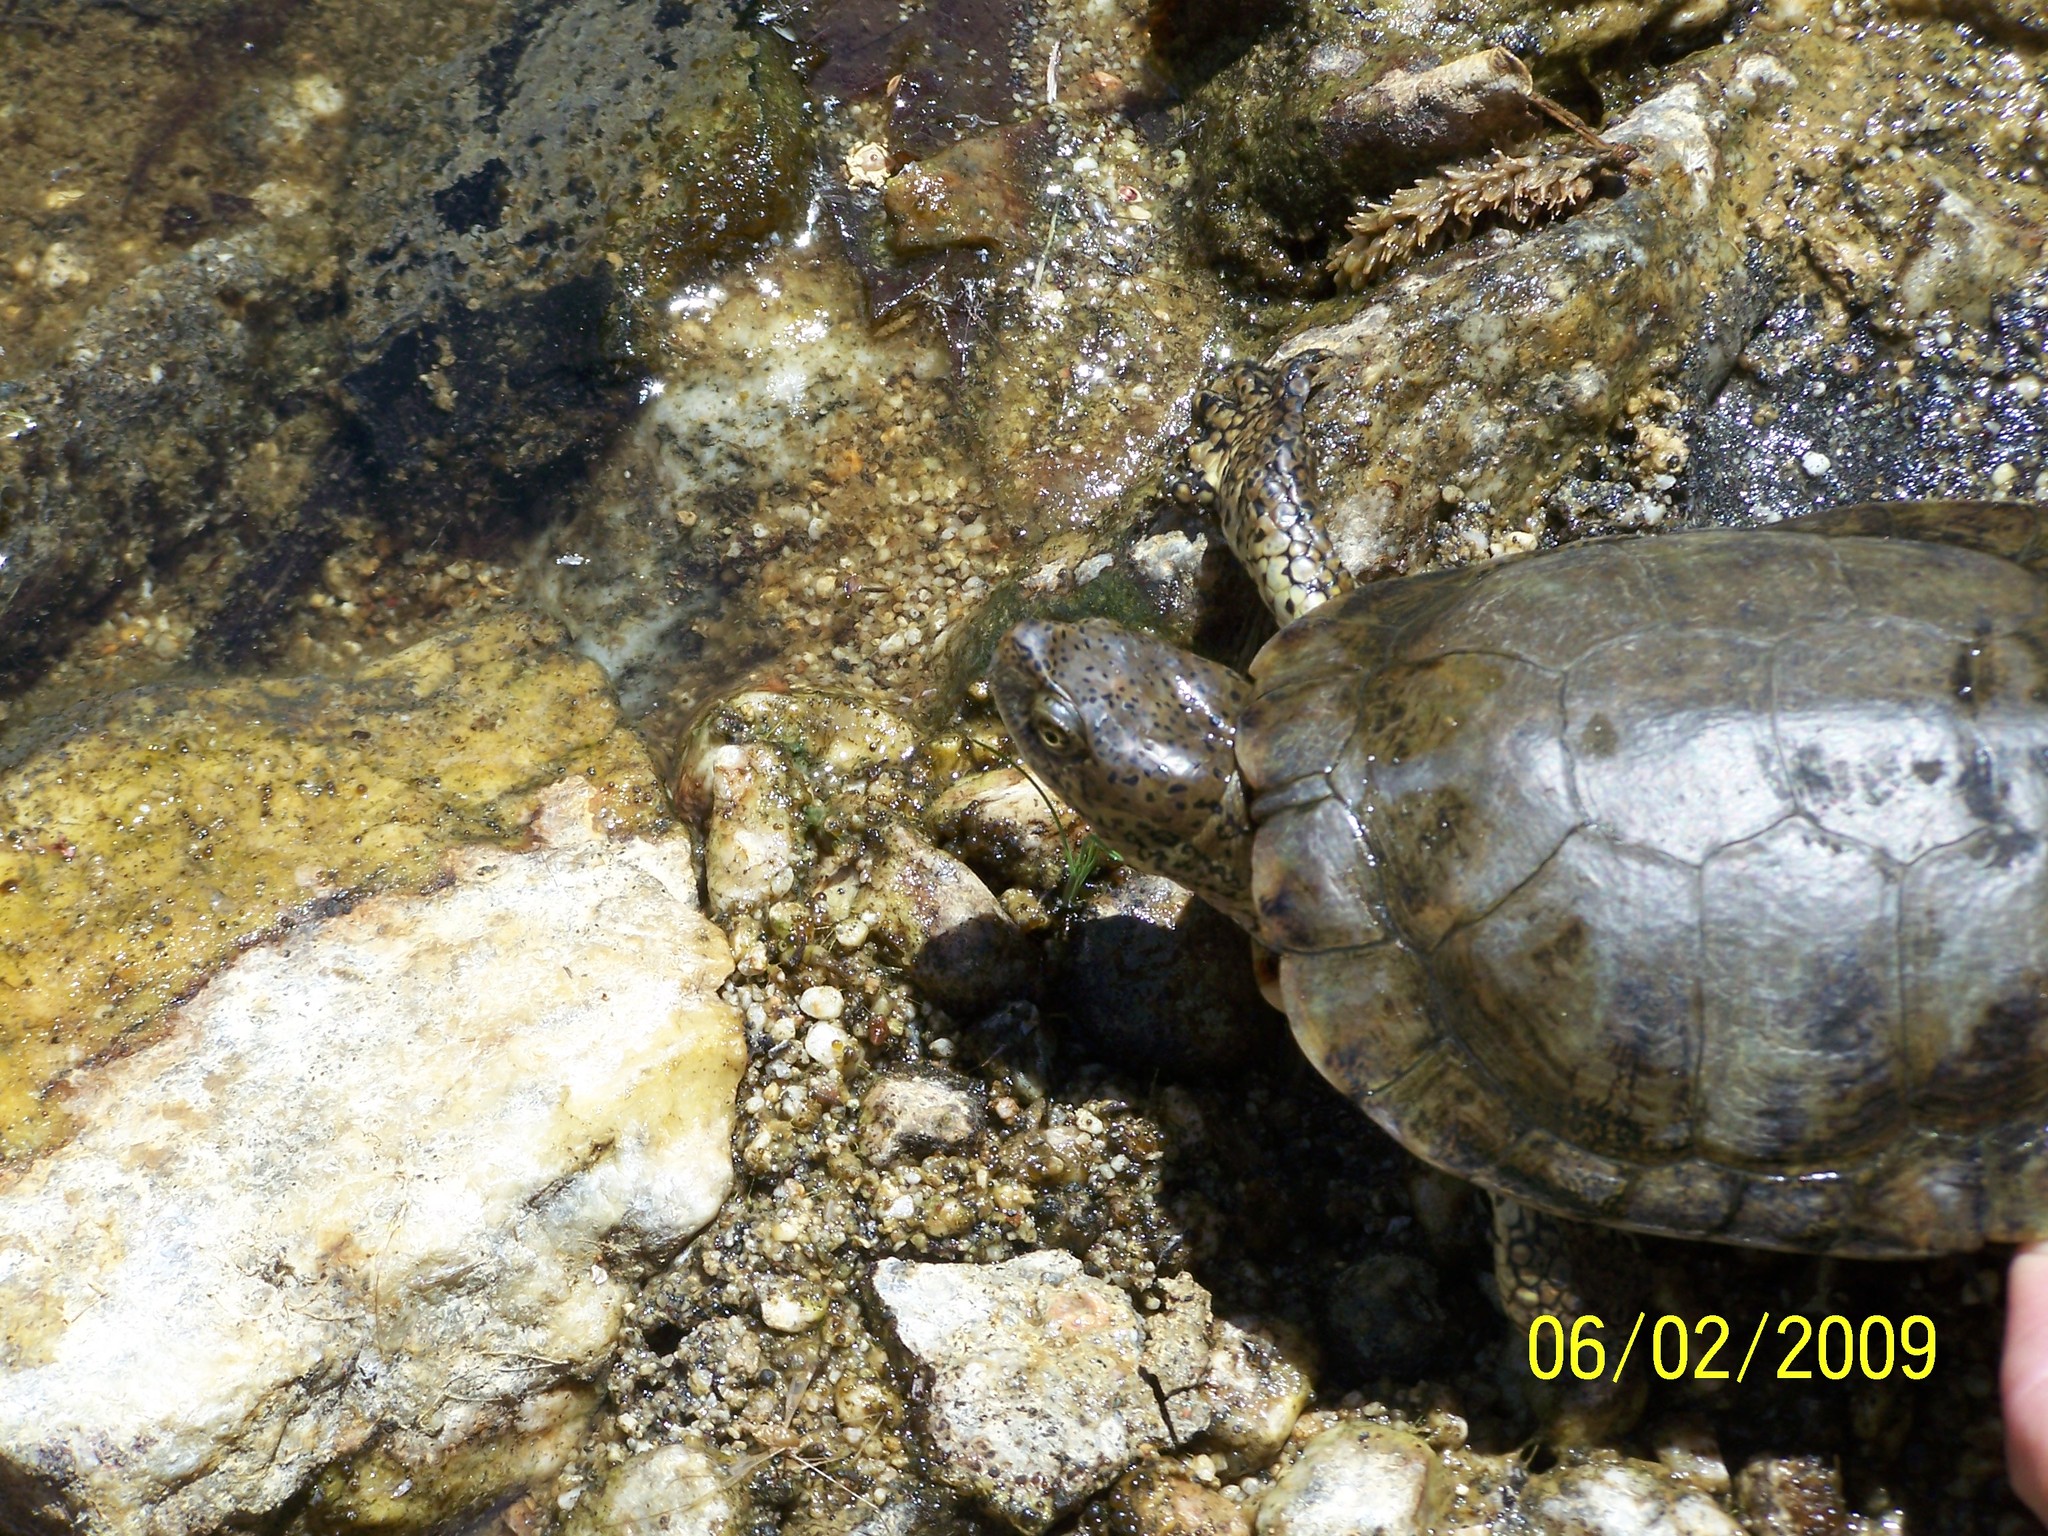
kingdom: Animalia
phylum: Chordata
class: Testudines
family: Emydidae
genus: Actinemys
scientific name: Actinemys pallida
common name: Southern pacific pond turtle
